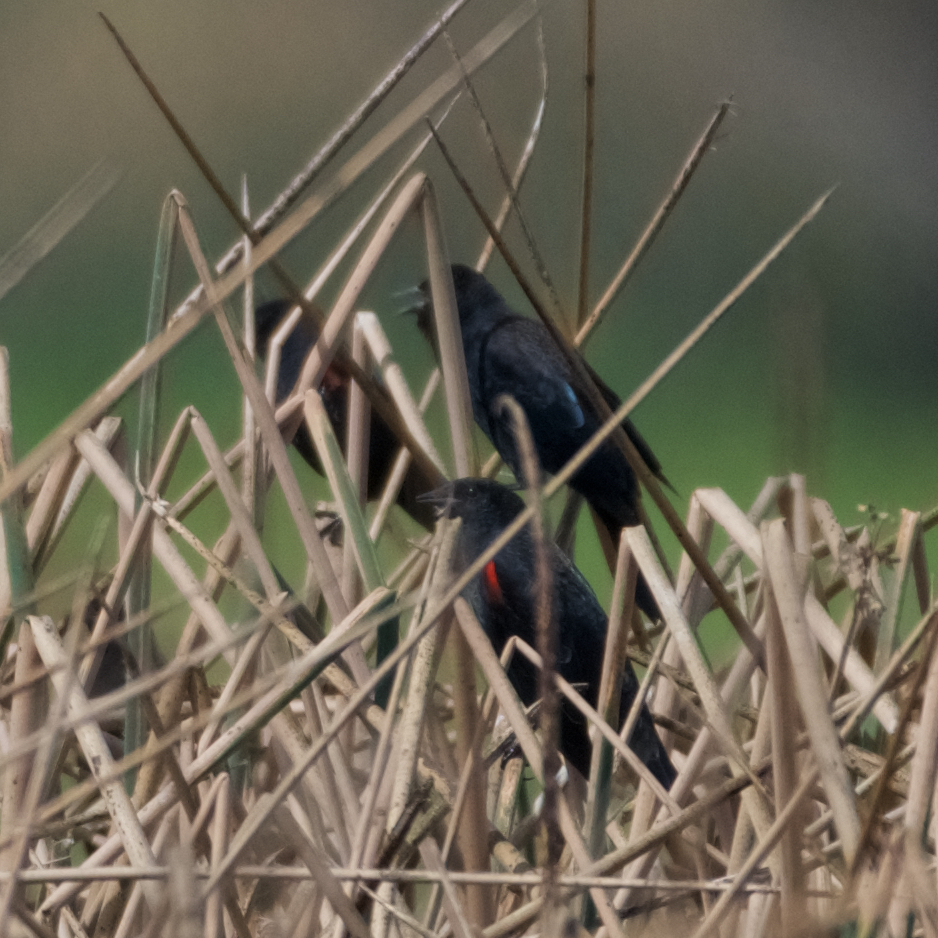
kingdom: Animalia
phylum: Chordata
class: Aves
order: Passeriformes
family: Icteridae
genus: Agelaius
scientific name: Agelaius phoeniceus
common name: Red-winged blackbird
